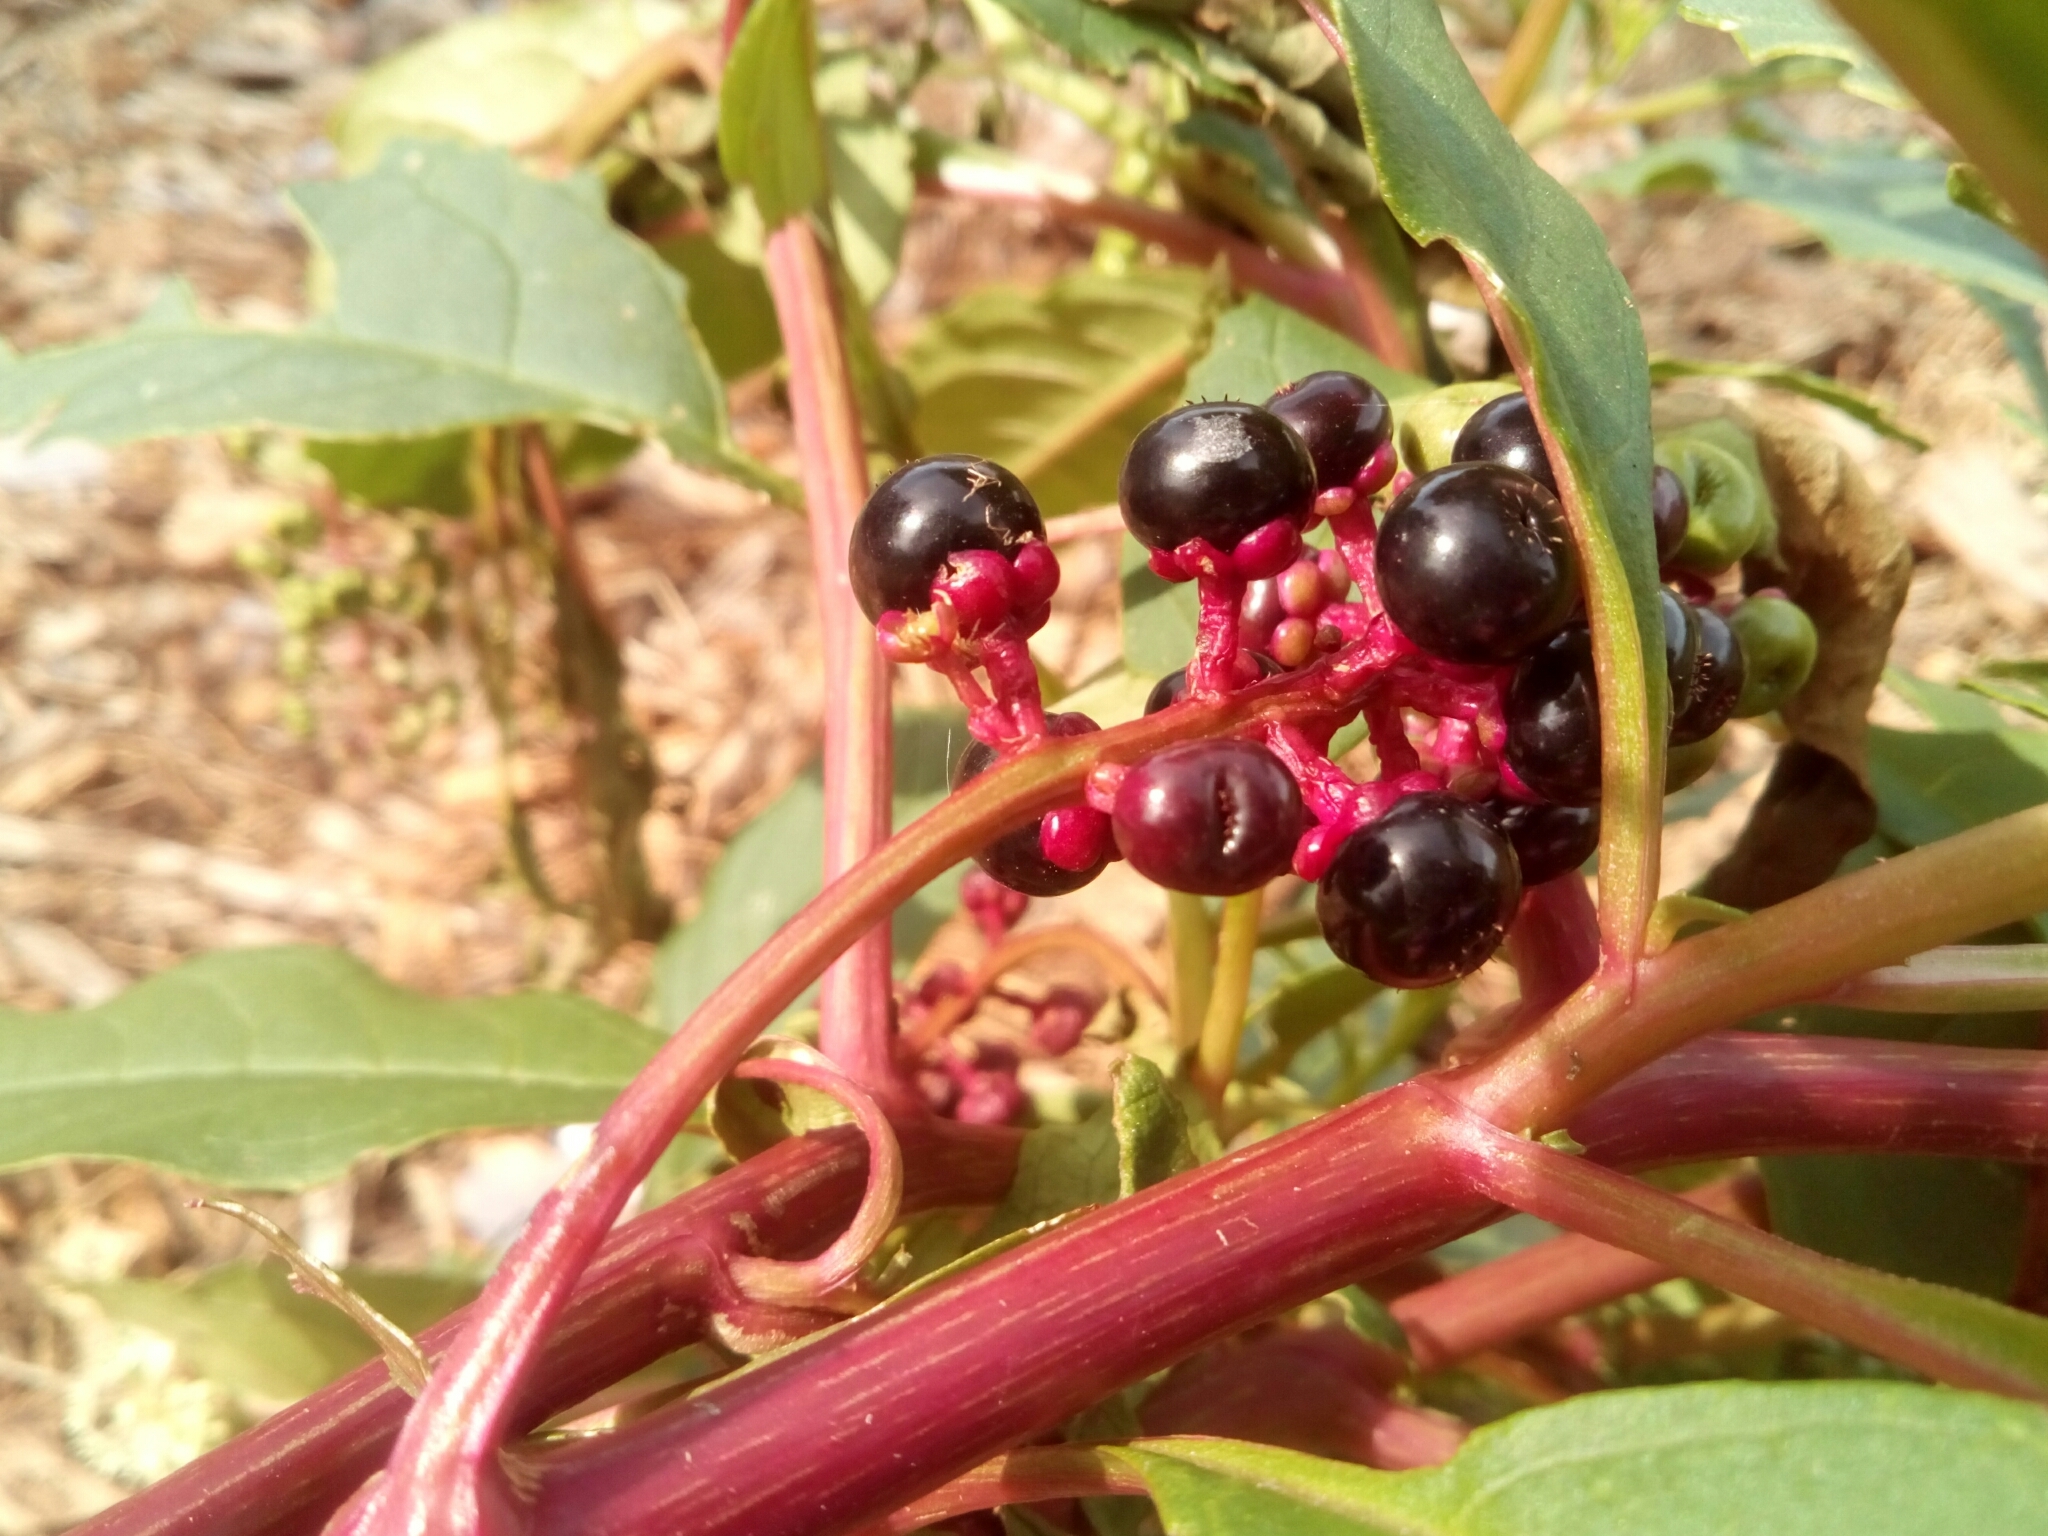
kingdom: Plantae
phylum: Tracheophyta
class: Magnoliopsida
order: Caryophyllales
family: Phytolaccaceae
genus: Phytolacca
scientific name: Phytolacca americana
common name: American pokeweed
